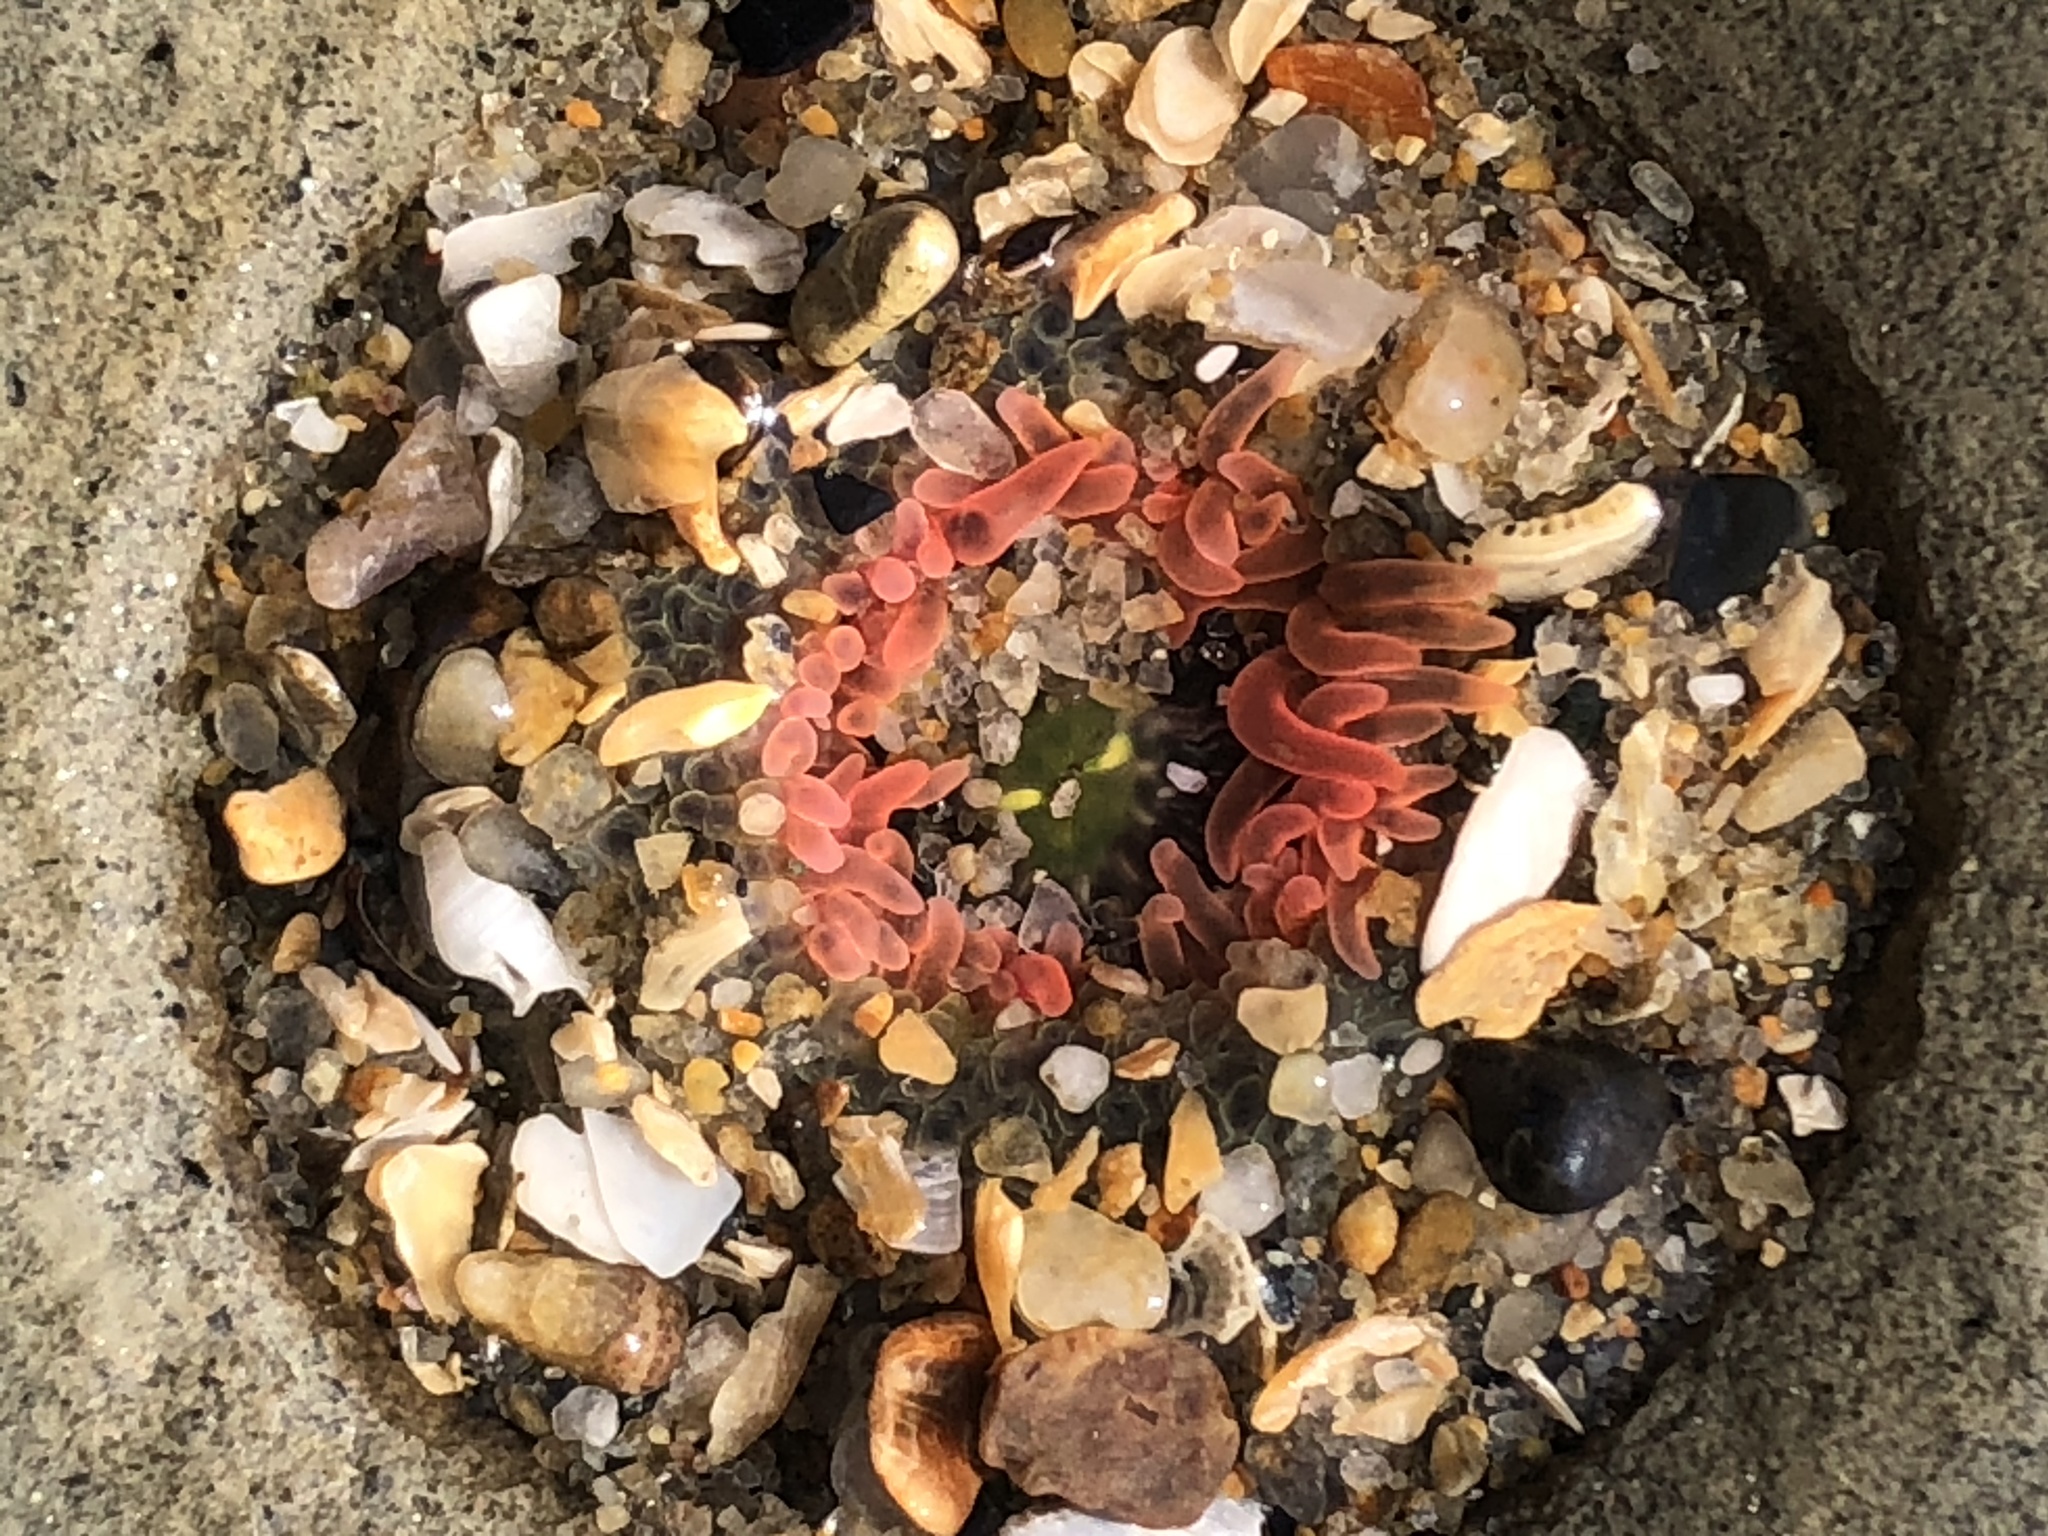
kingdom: Animalia
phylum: Cnidaria
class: Anthozoa
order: Actiniaria
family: Actiniidae
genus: Anthopleura
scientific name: Anthopleura artemisia
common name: Buried sea anemone
